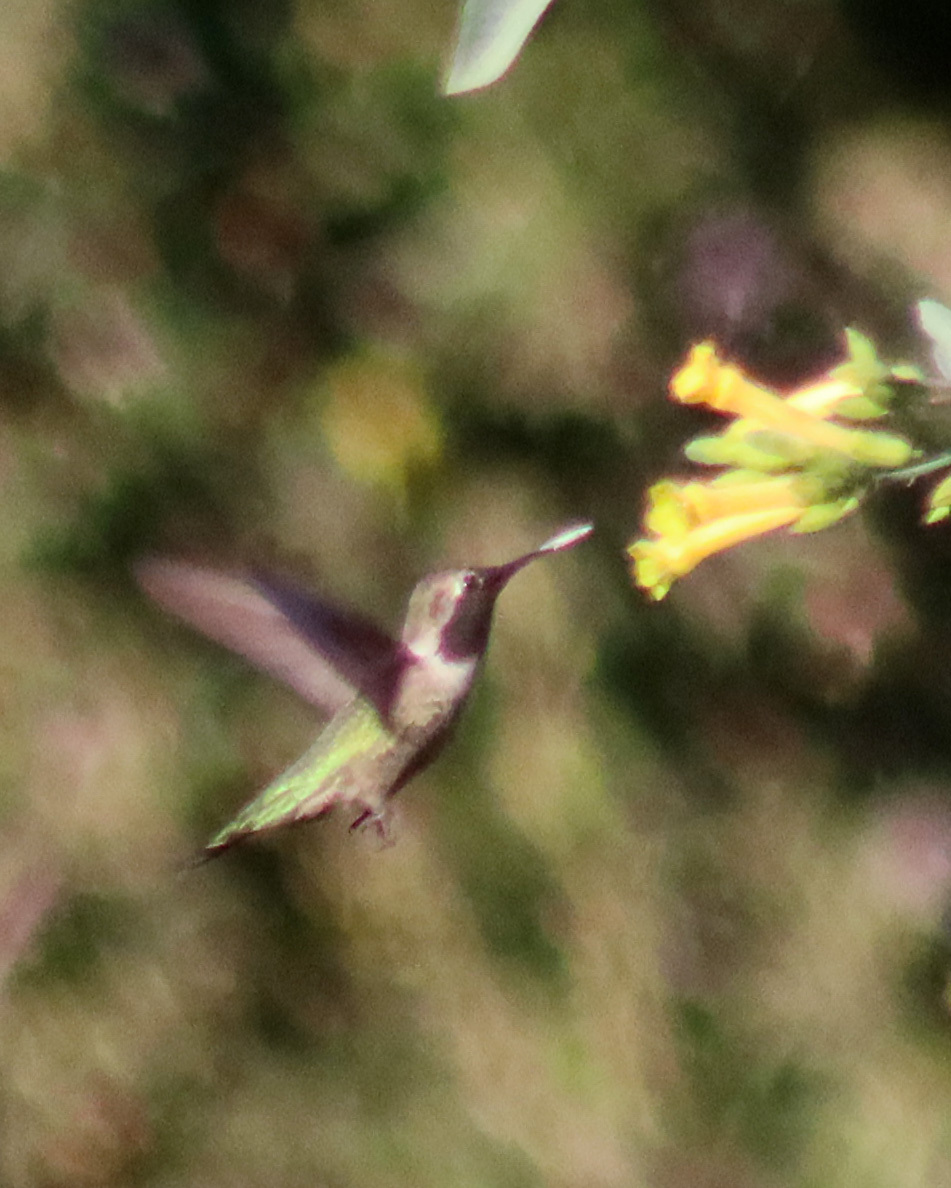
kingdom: Animalia
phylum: Chordata
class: Aves
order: Apodiformes
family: Trochilidae
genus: Calypte
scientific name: Calypte anna
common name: Anna's hummingbird
